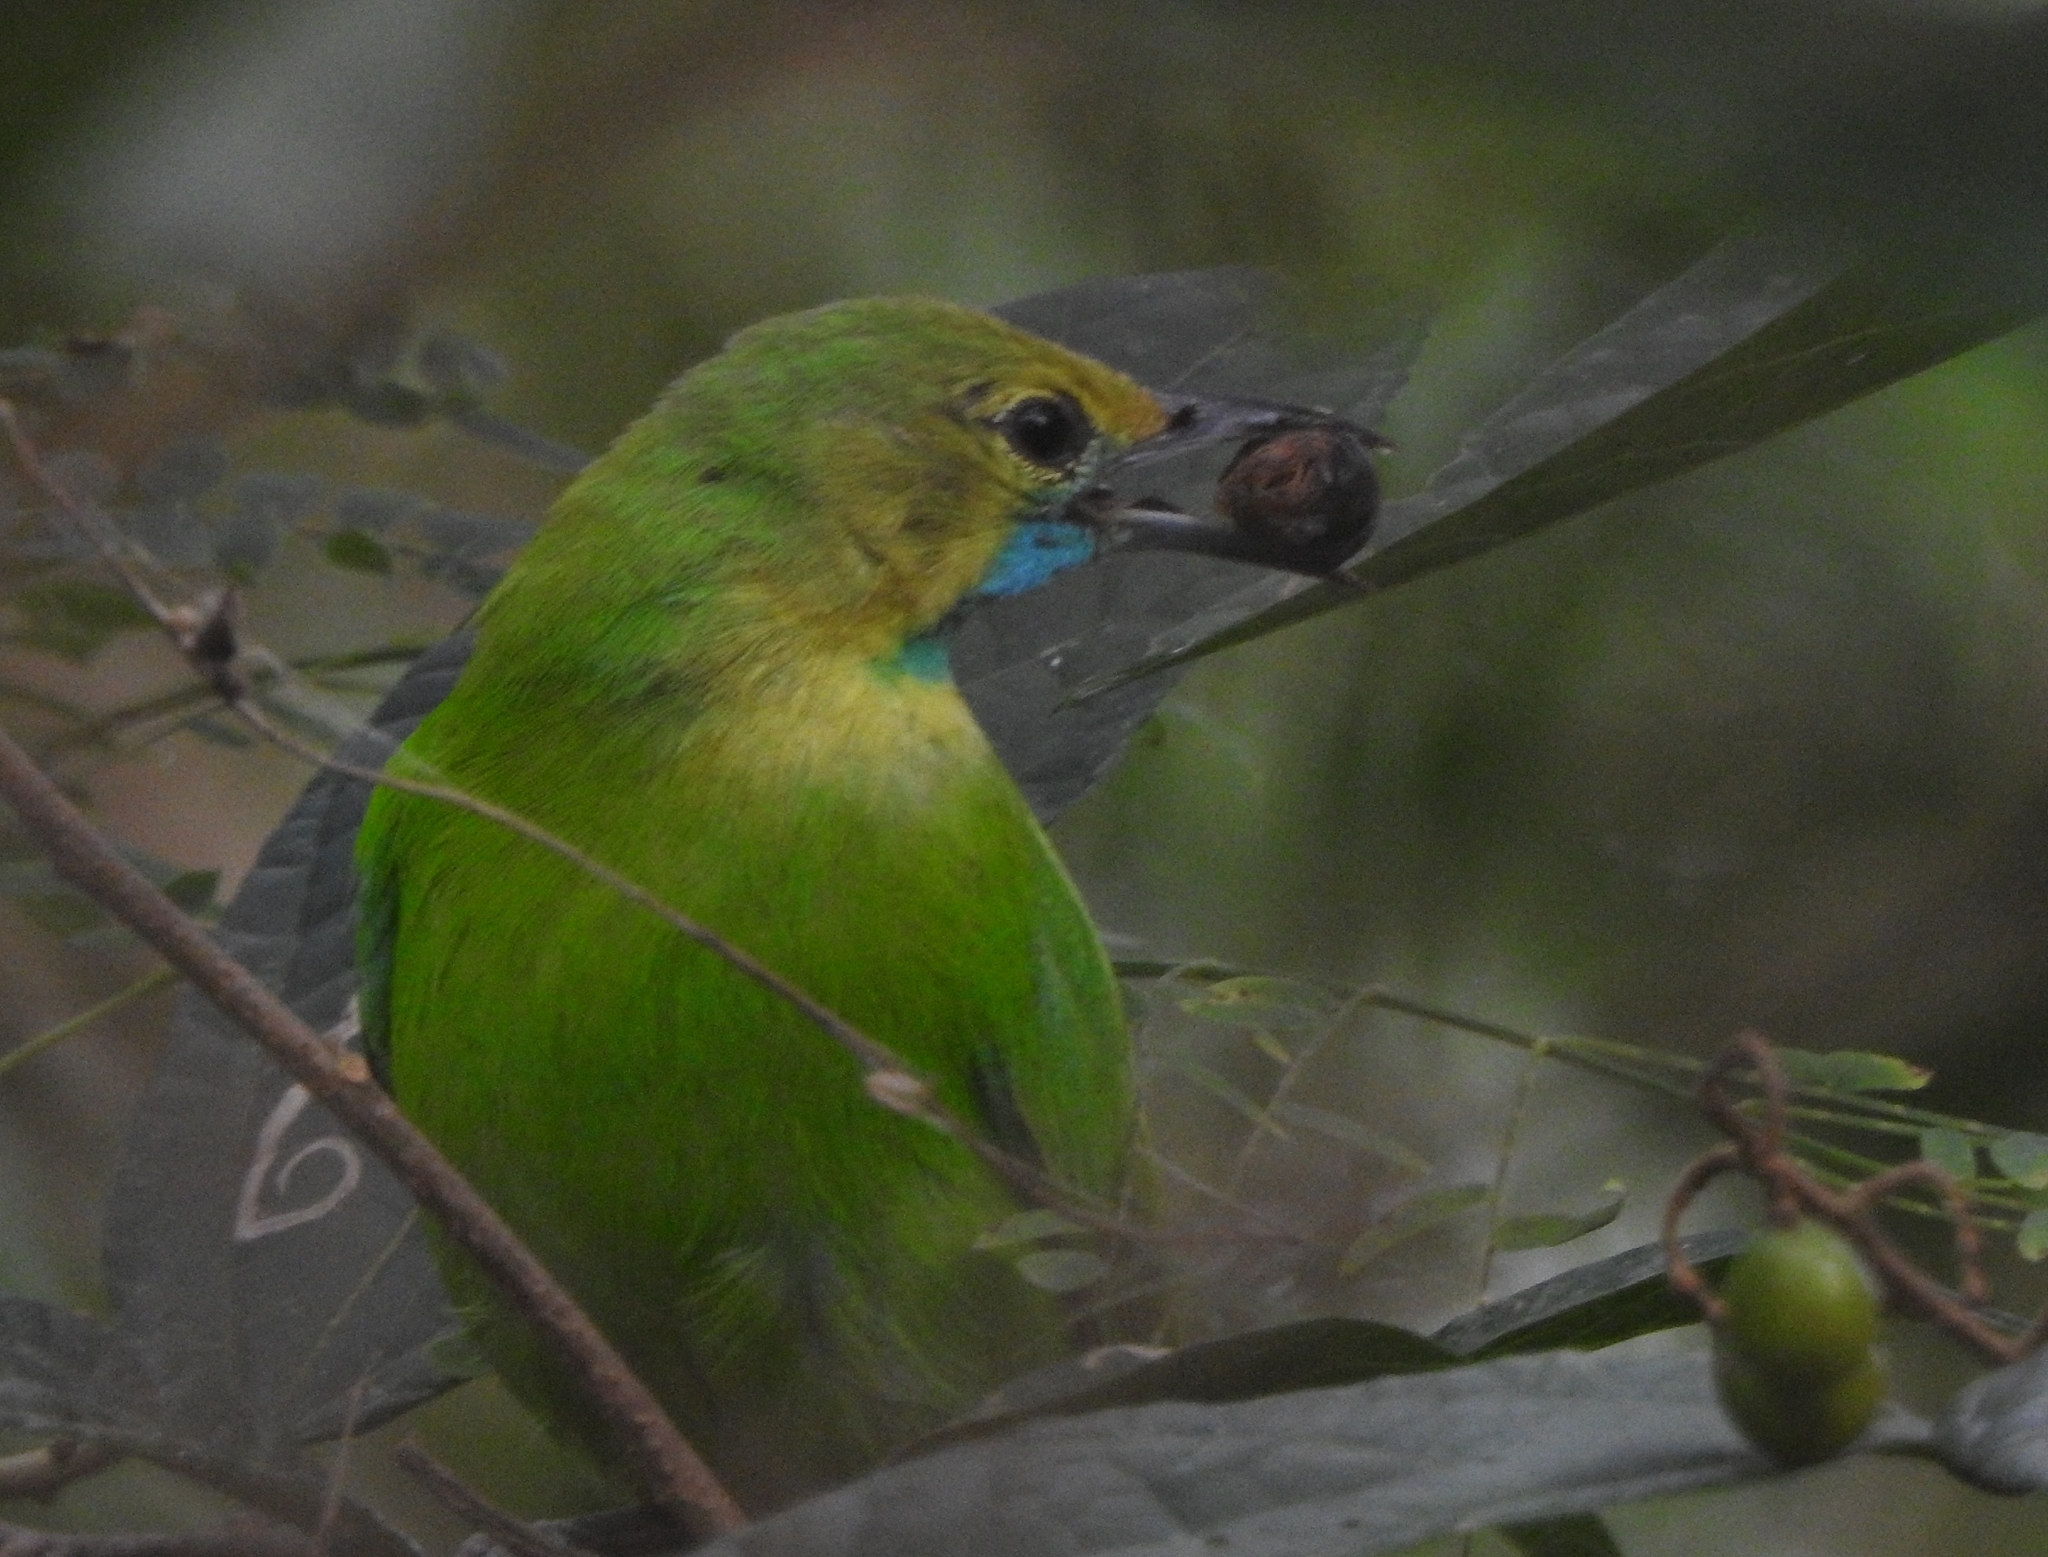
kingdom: Animalia
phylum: Chordata
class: Aves
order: Passeriformes
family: Chloropseidae
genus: Chloropsis
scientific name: Chloropsis jerdoni
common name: Jerdon's leafbird
